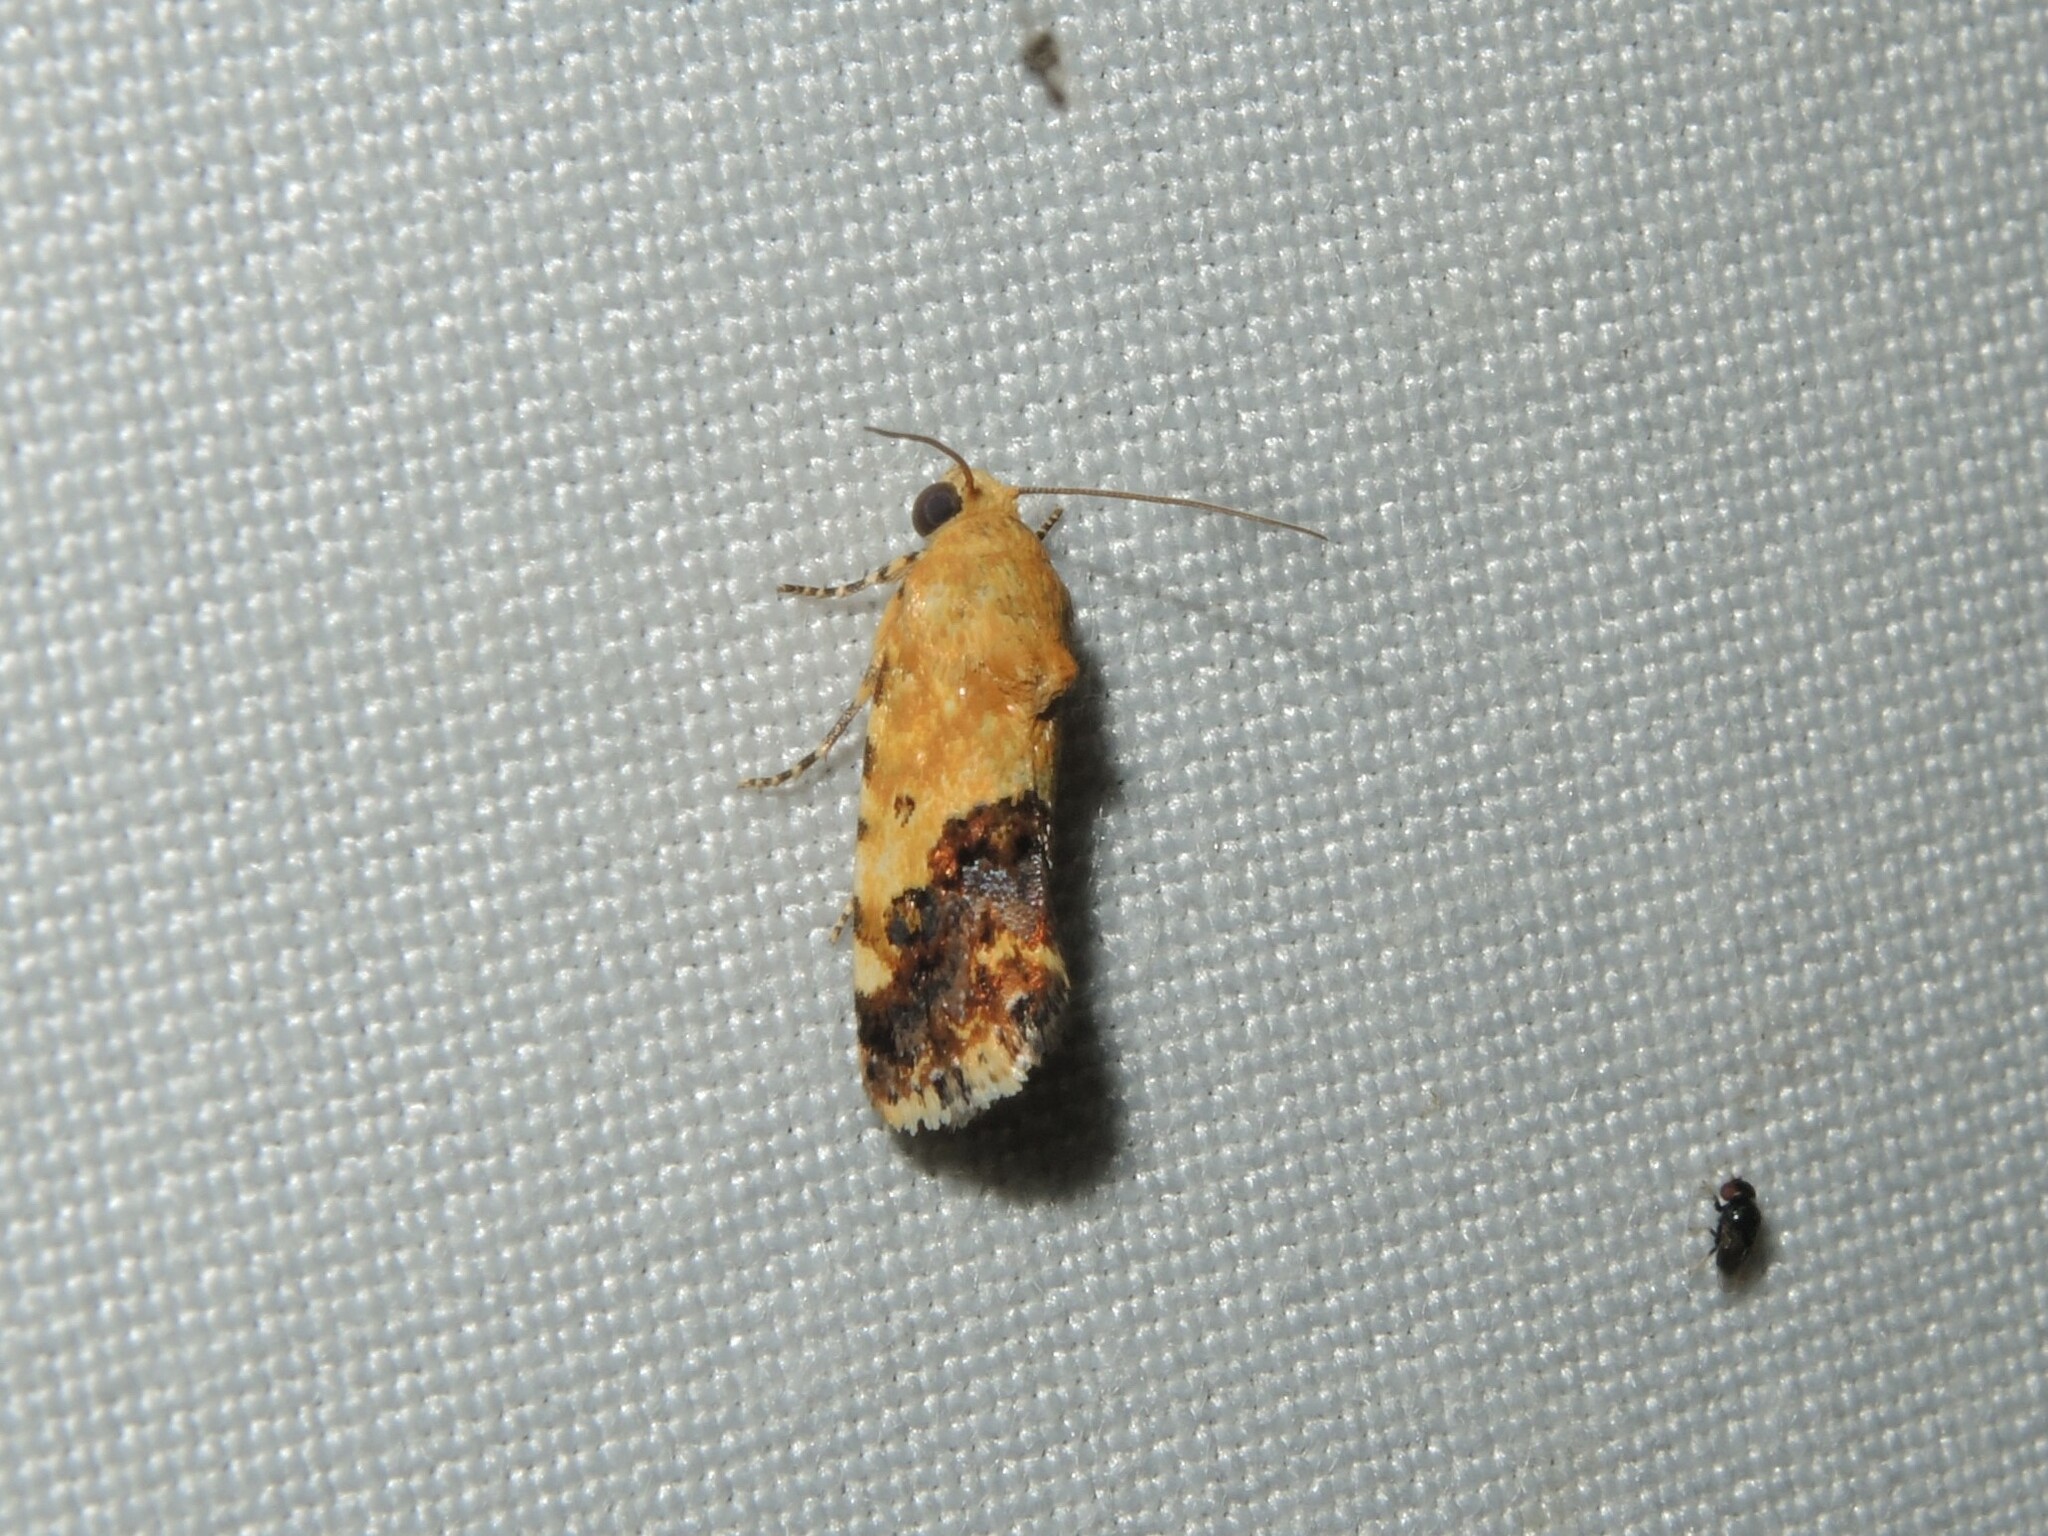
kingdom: Animalia
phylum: Arthropoda
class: Insecta
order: Lepidoptera
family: Noctuidae
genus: Acontia
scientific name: Acontia marmoralis
